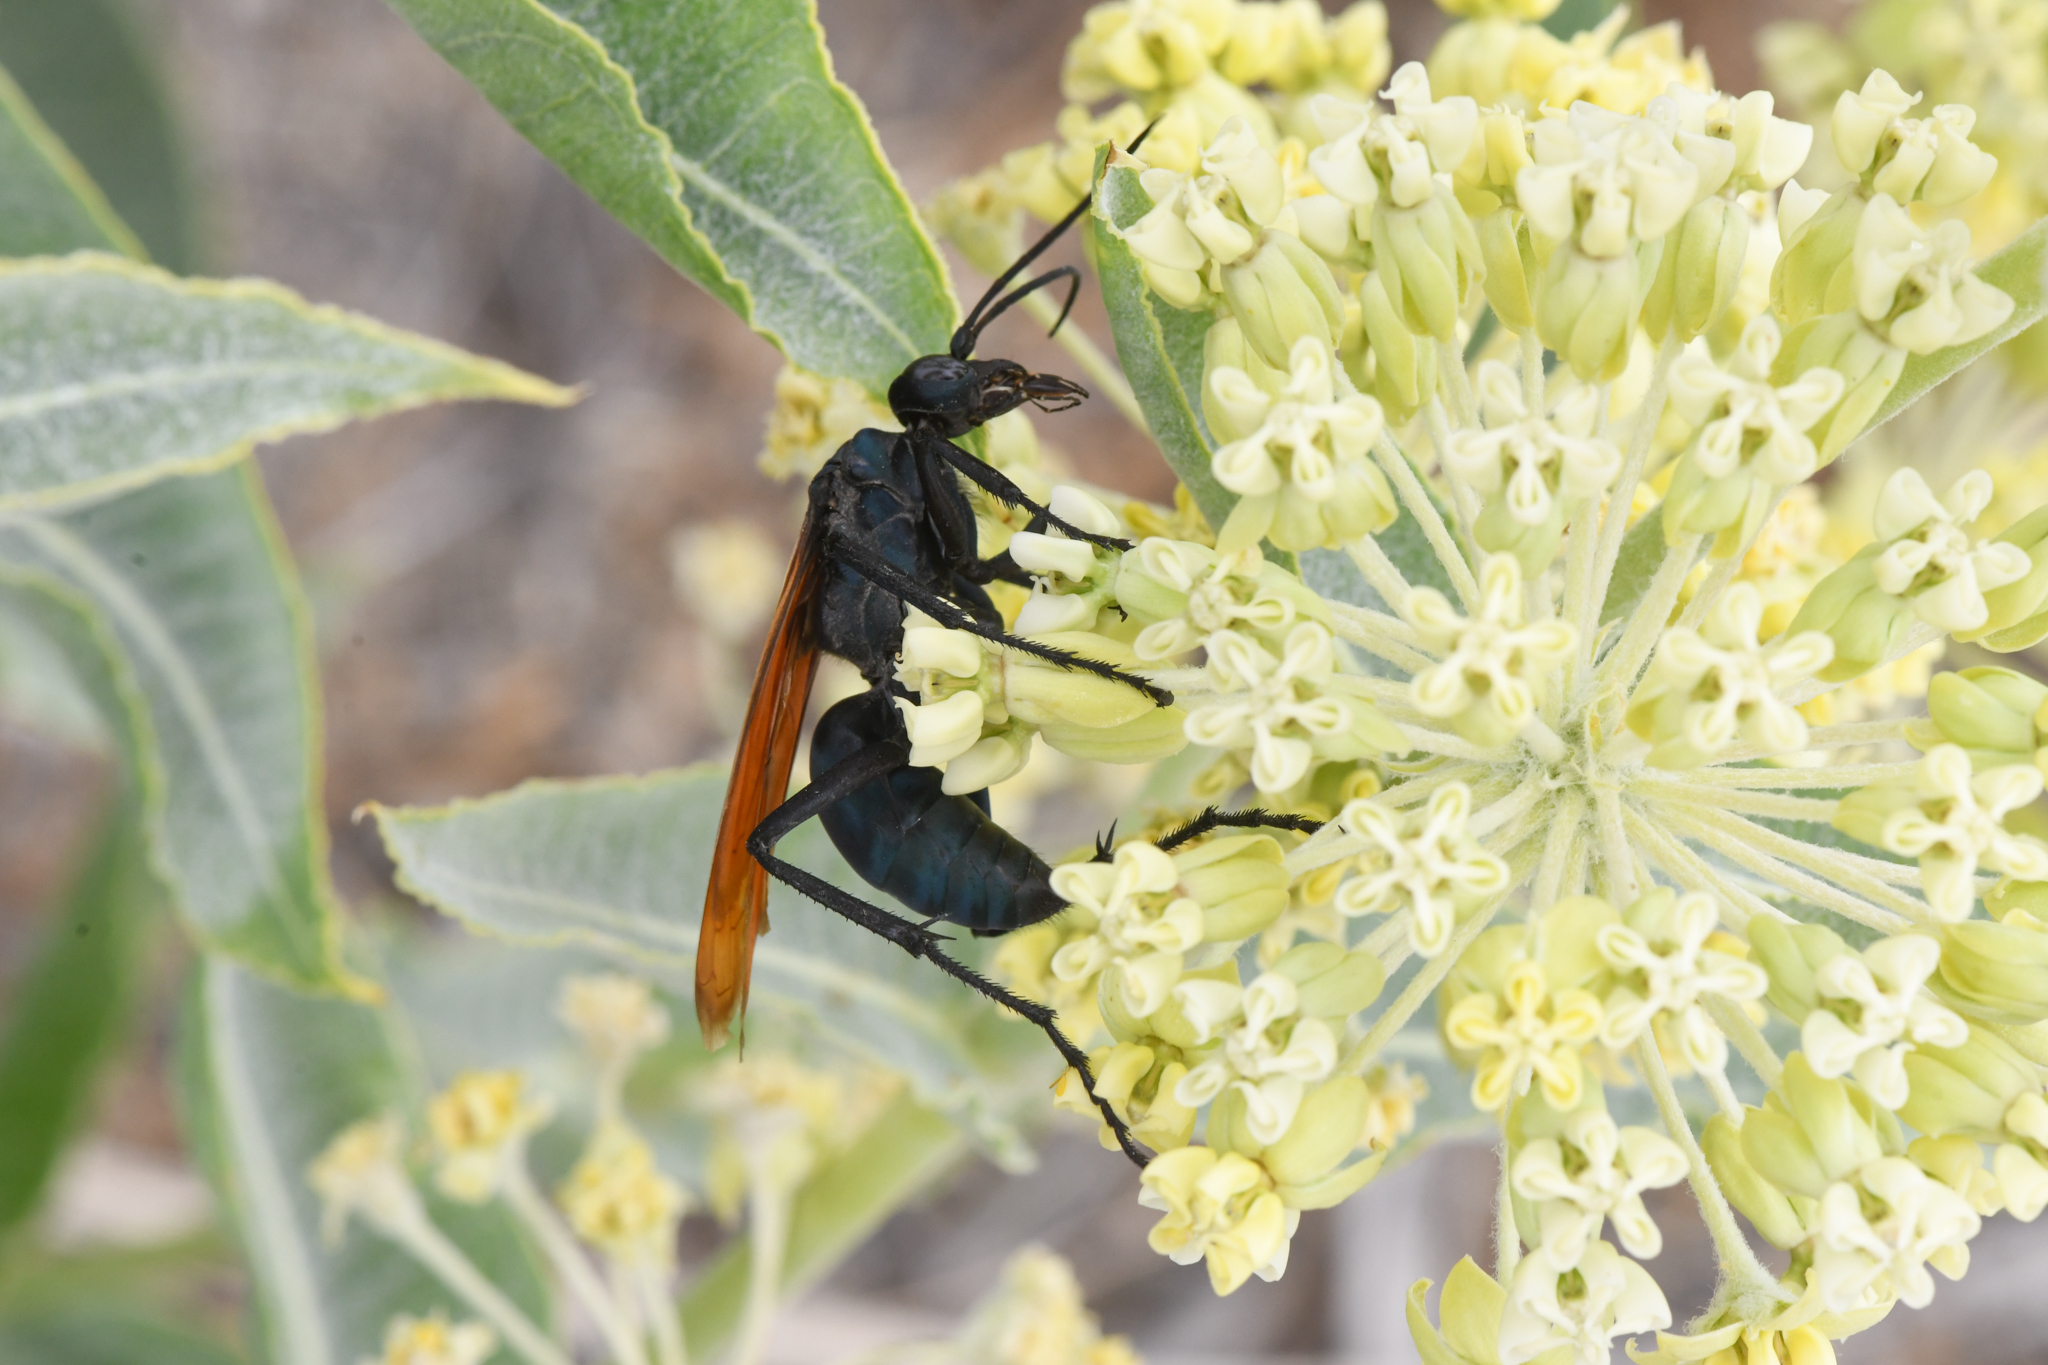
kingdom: Animalia
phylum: Arthropoda
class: Insecta
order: Hymenoptera
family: Pompilidae
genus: Pepsis
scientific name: Pepsis thisbe
